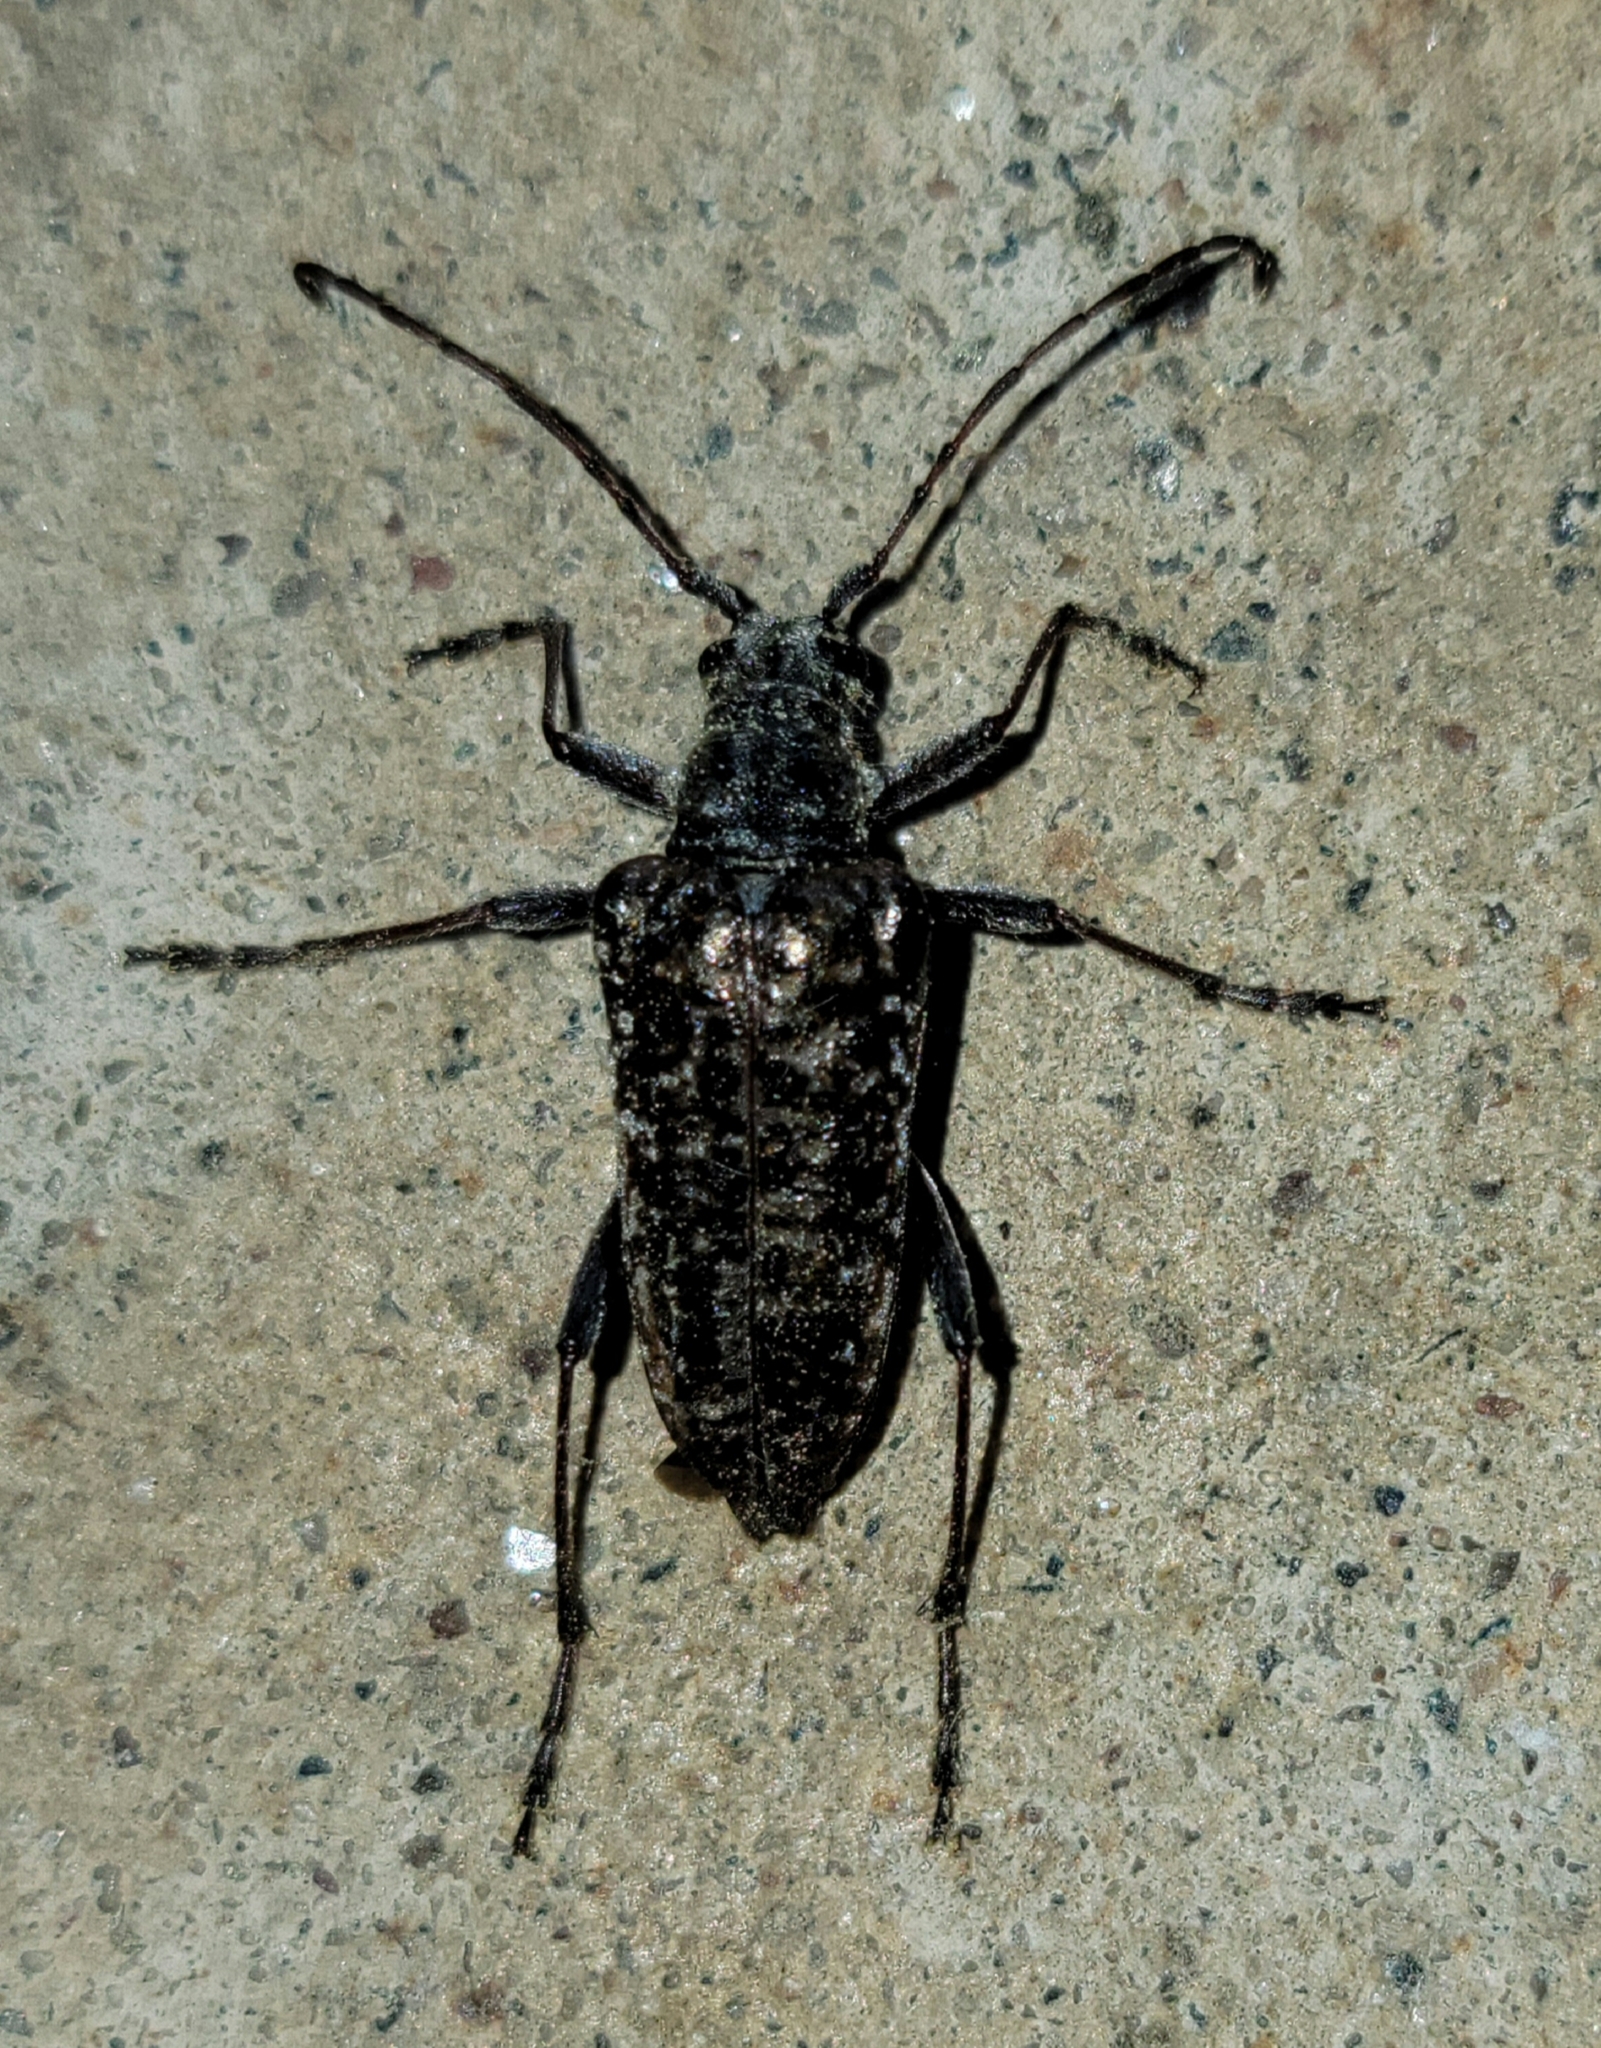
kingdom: Animalia
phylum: Arthropoda
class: Insecta
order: Coleoptera
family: Cerambycidae
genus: Anthophylax
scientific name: Anthophylax attenuatus
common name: Mottled longhorned beetle
